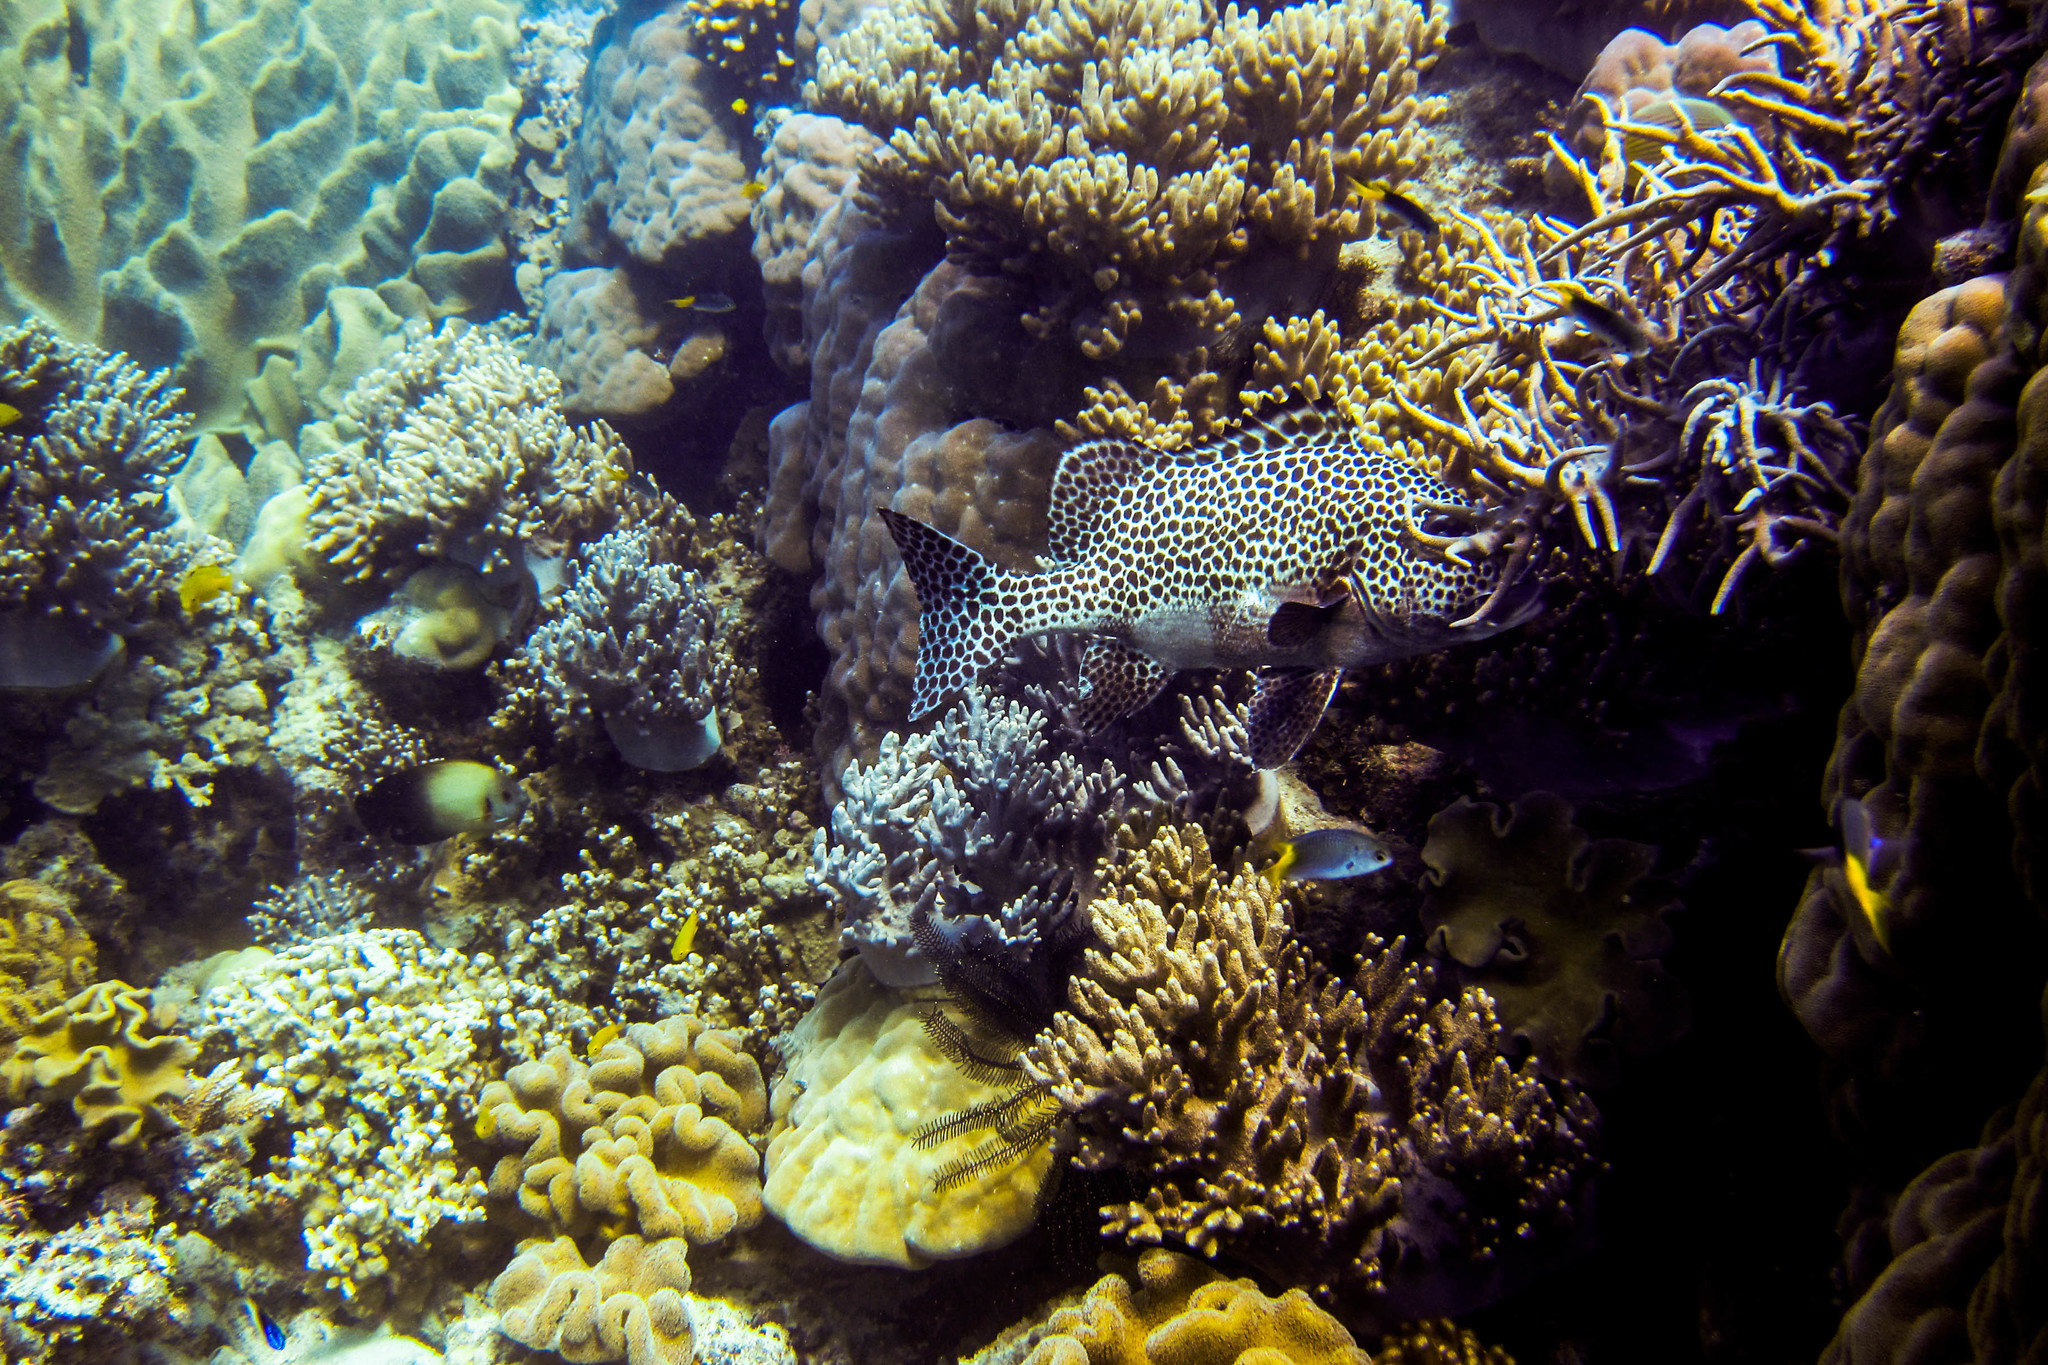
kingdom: Animalia
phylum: Chordata
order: Perciformes
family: Haemulidae
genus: Plectorhinchus
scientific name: Plectorhinchus chaetodonoides
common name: Harlequin sweetlips
